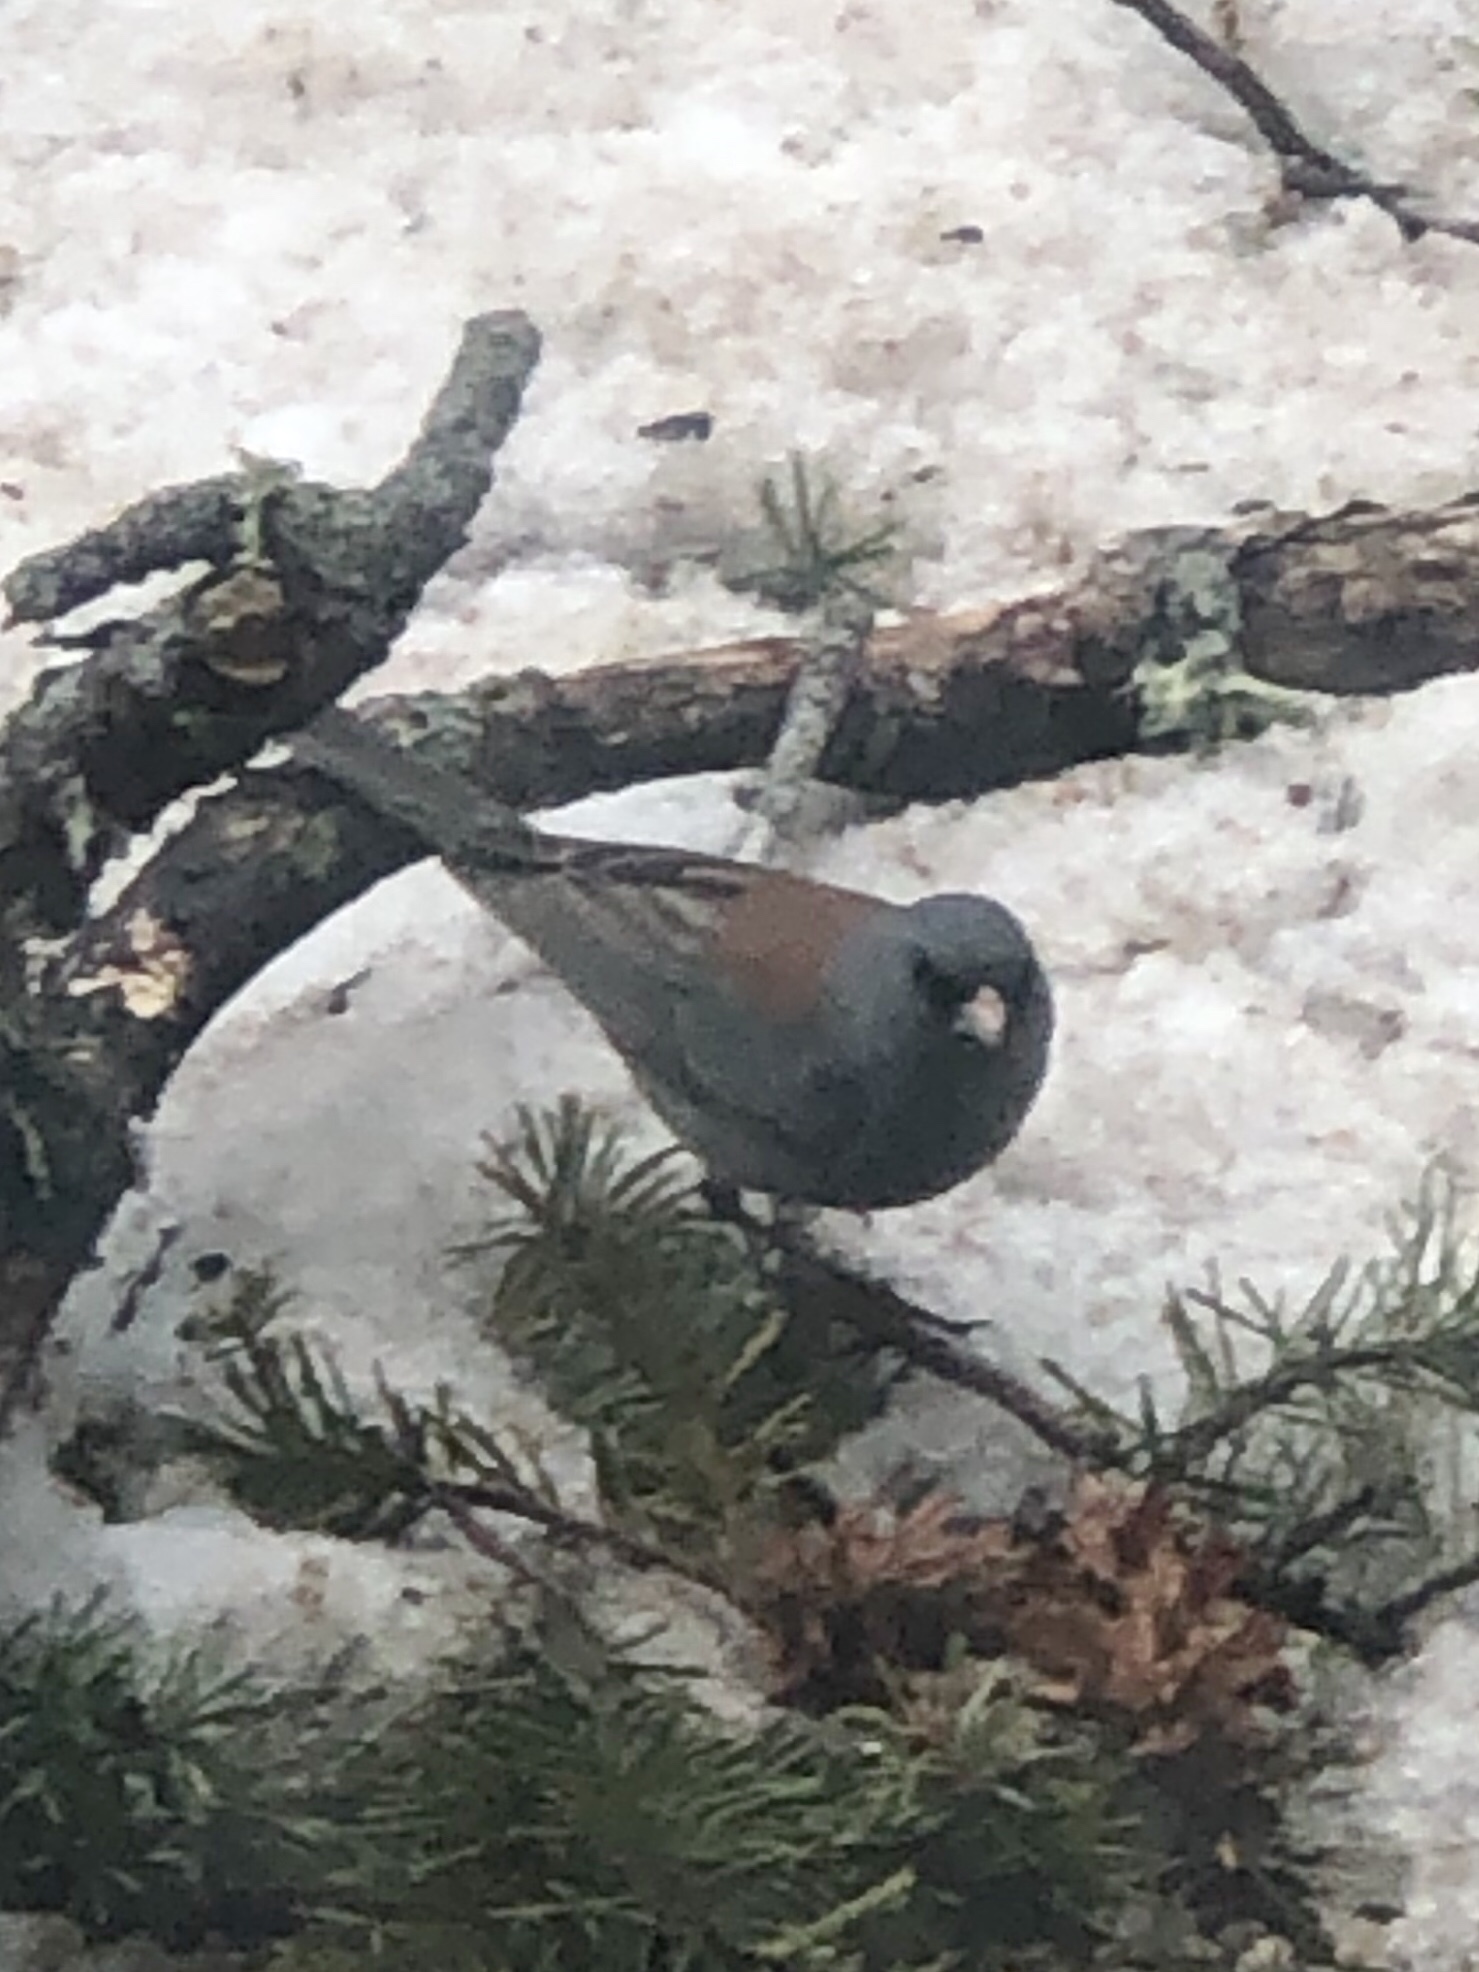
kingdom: Animalia
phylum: Chordata
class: Aves
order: Passeriformes
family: Passerellidae
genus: Junco
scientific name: Junco hyemalis
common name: Dark-eyed junco
